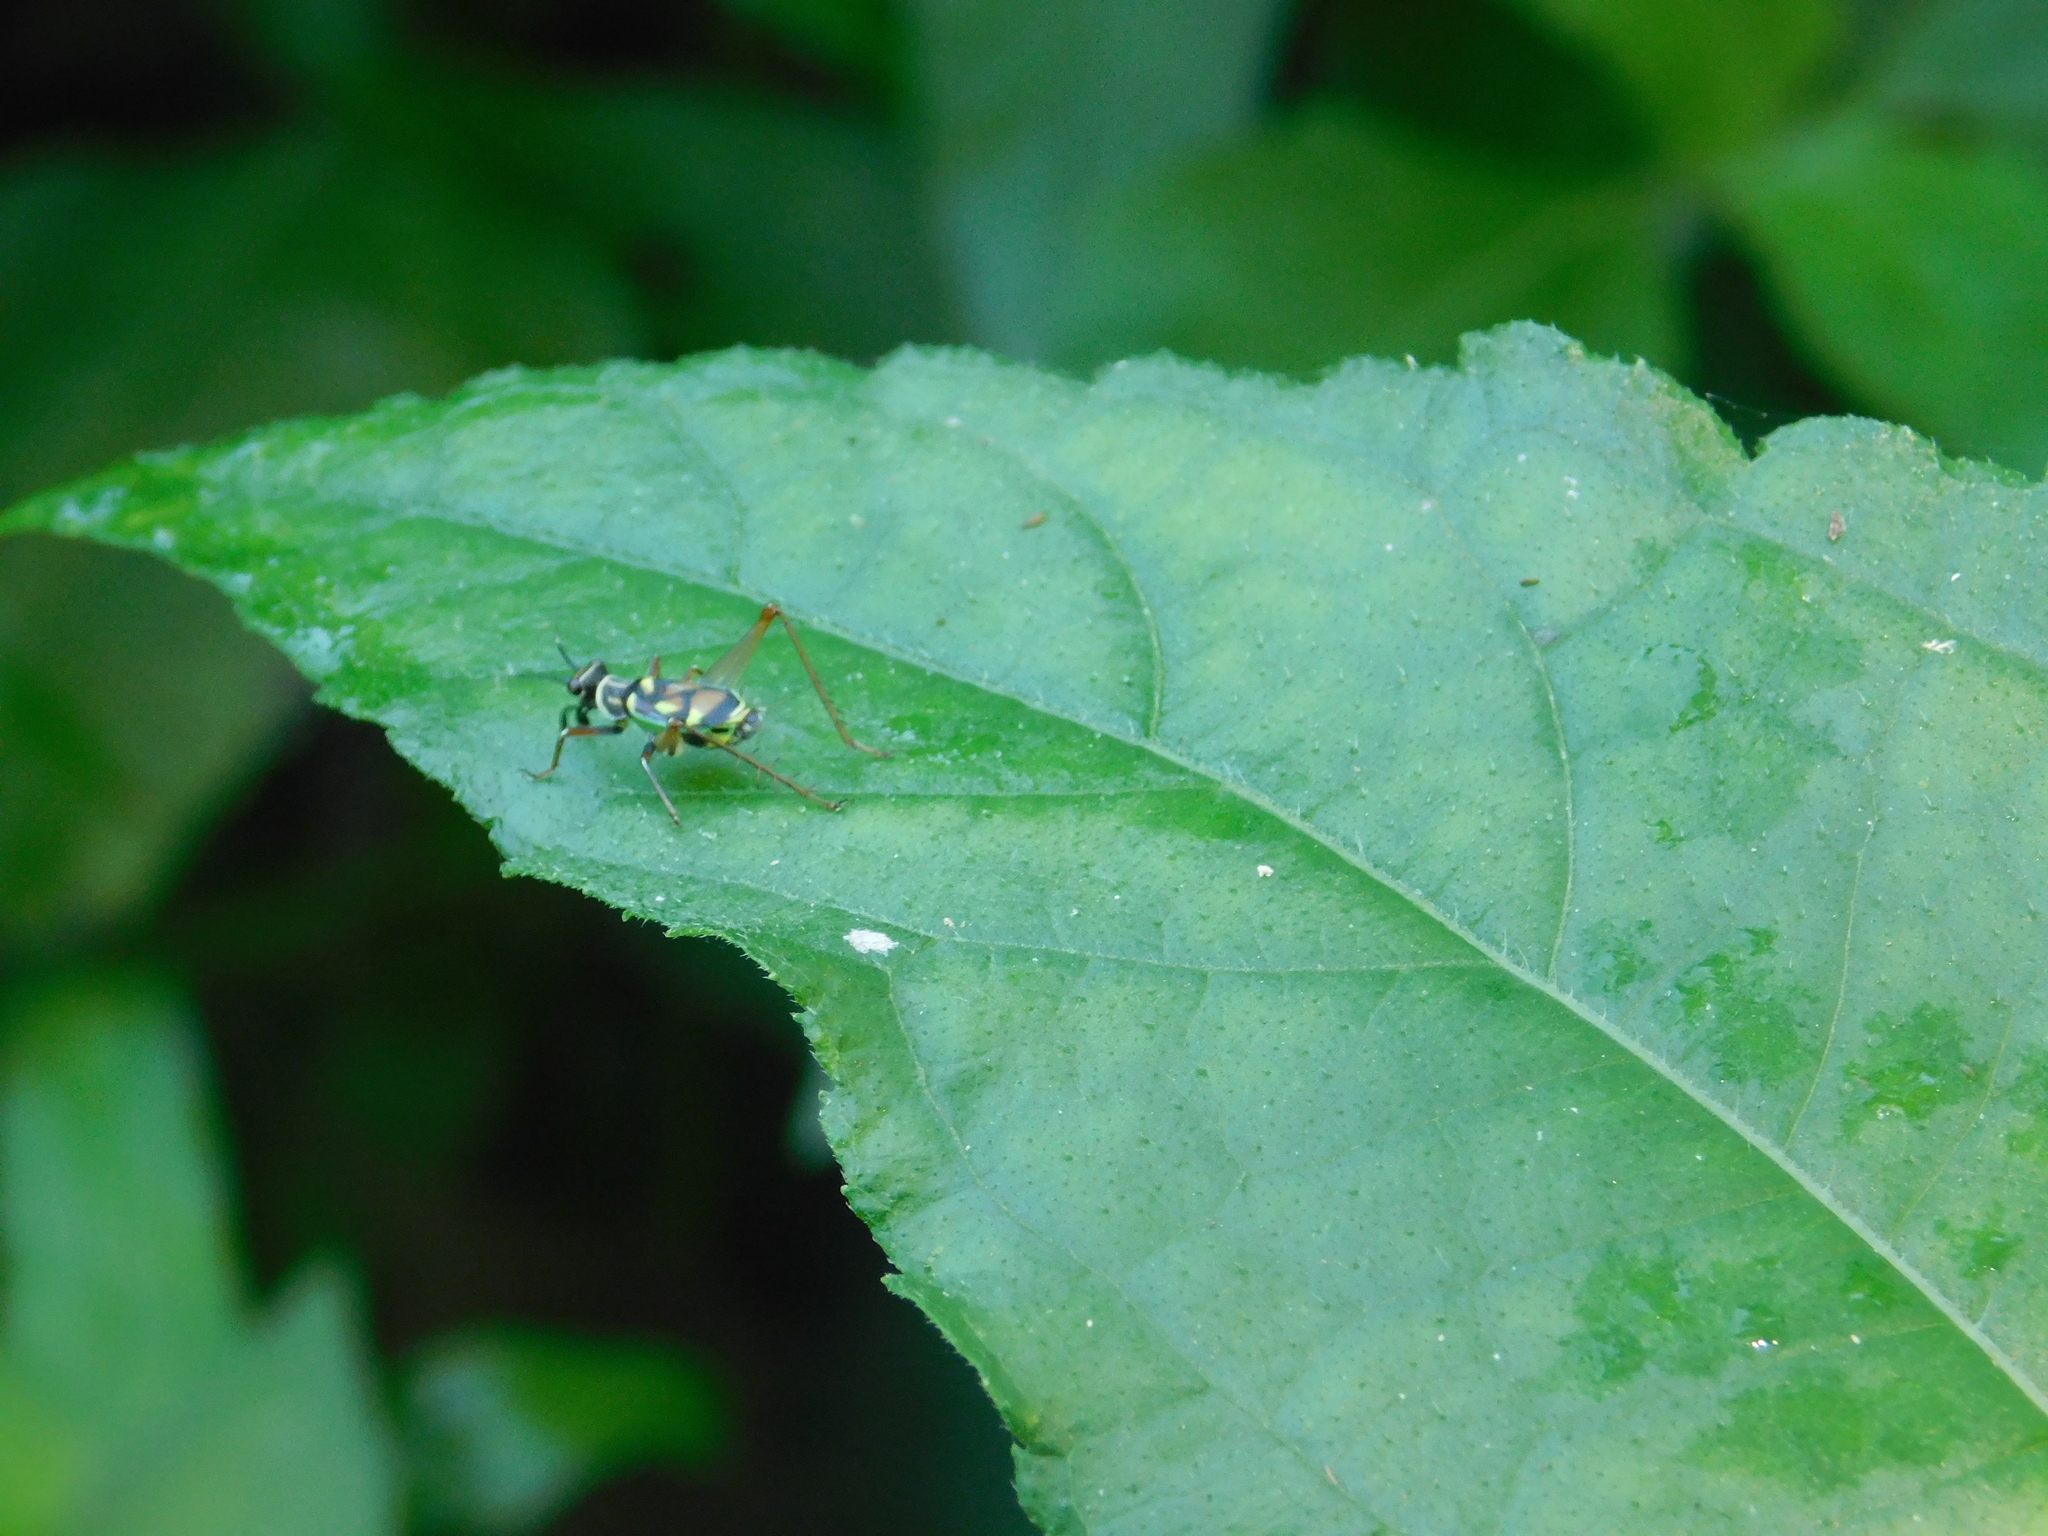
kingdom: Animalia
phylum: Arthropoda
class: Insecta
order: Orthoptera
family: Trigonidiidae
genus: Phylloscyrtus
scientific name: Phylloscyrtus amoenus
